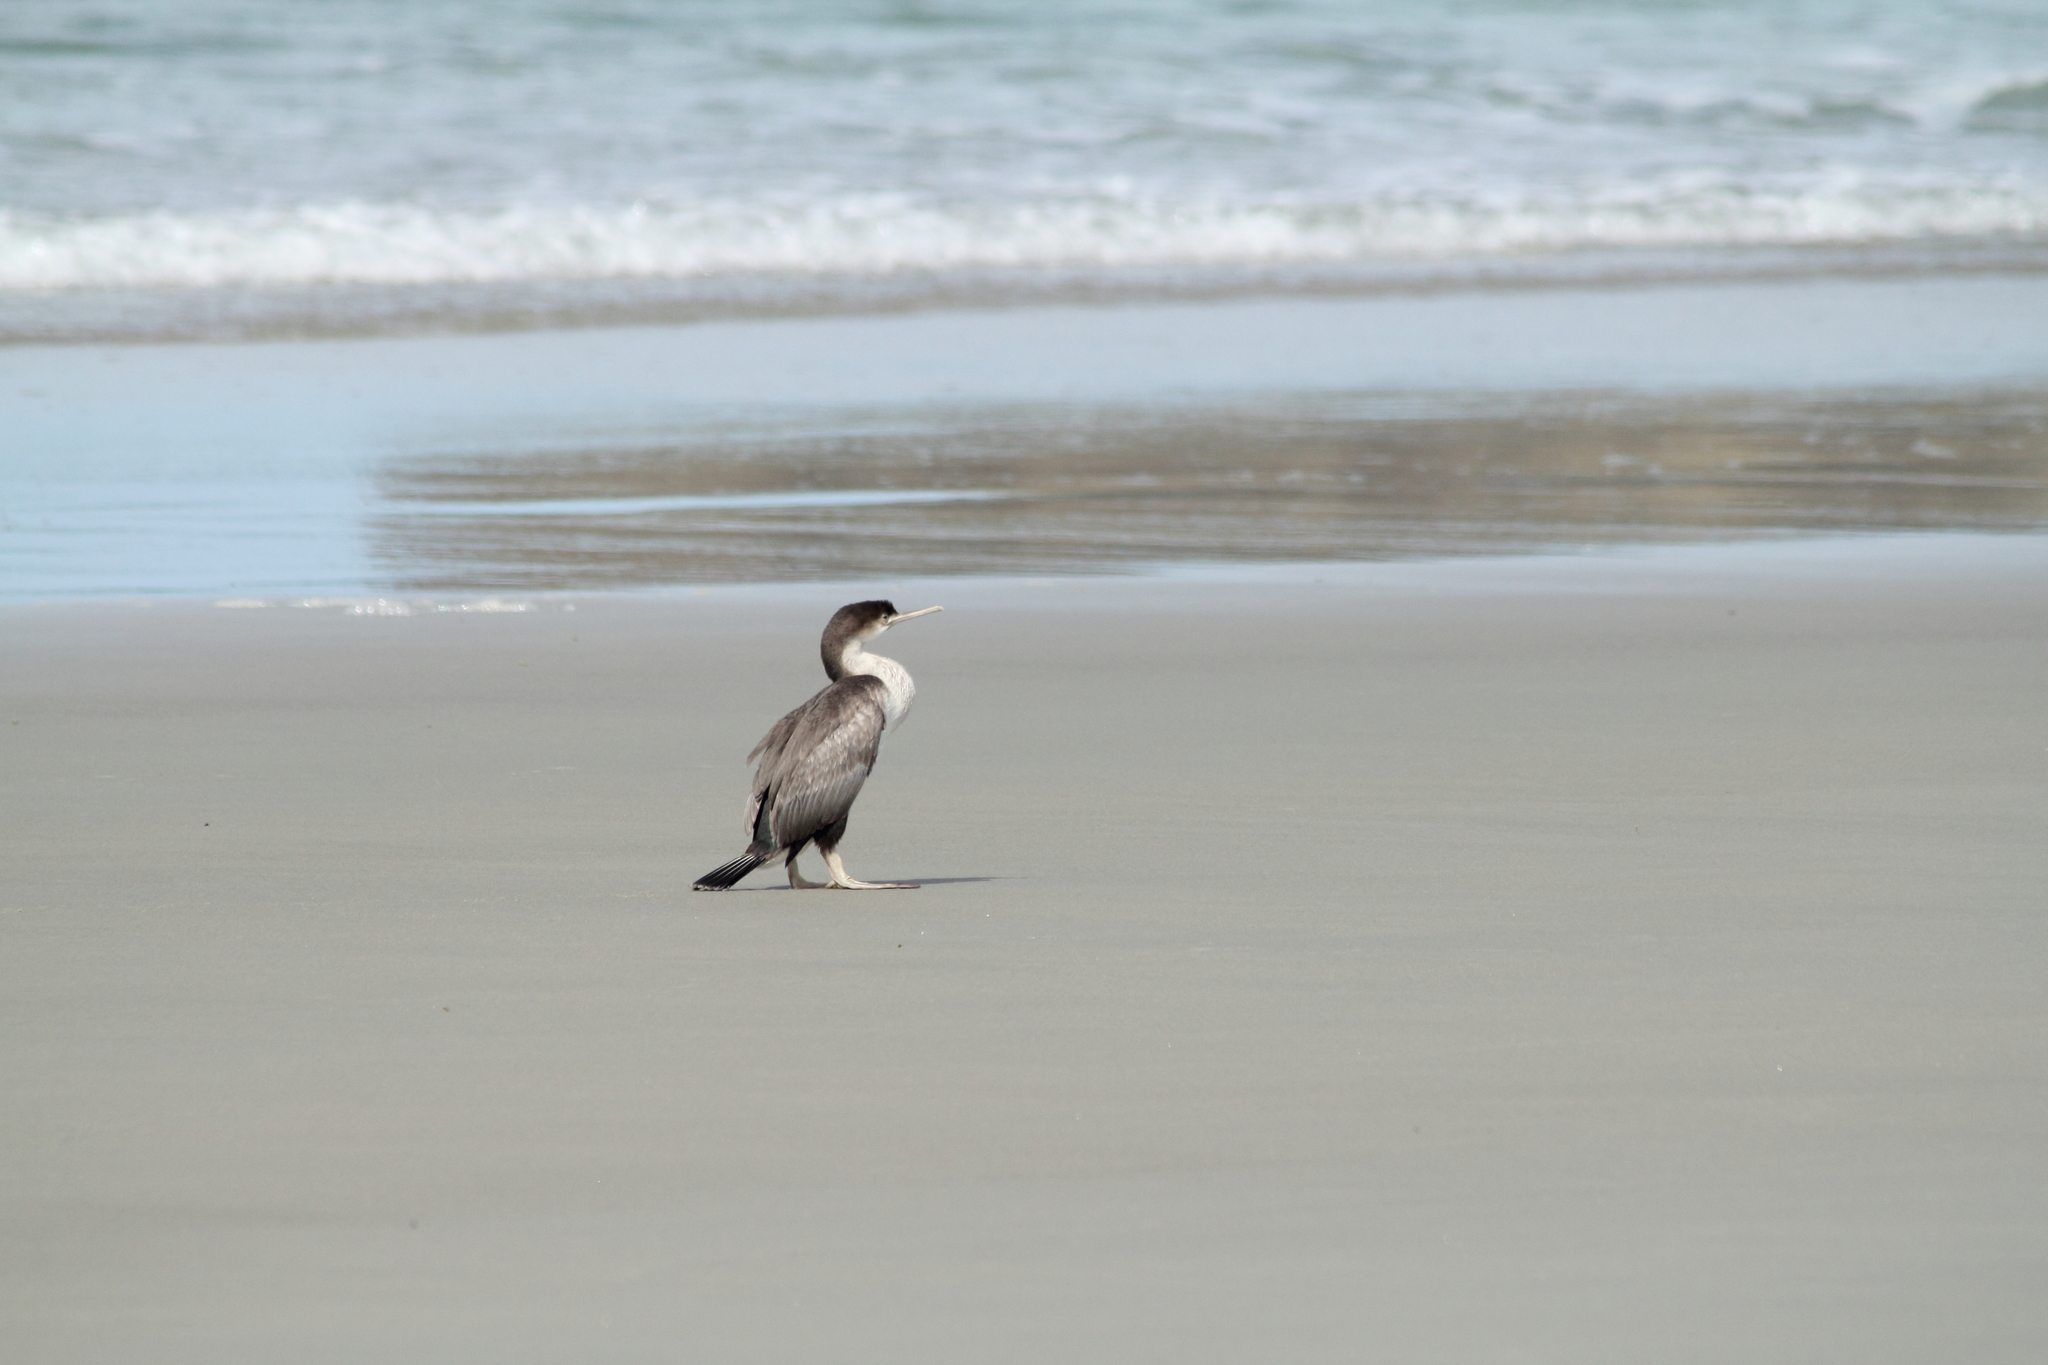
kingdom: Animalia
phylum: Chordata
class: Aves
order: Suliformes
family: Phalacrocoracidae
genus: Phalacrocorax
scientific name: Phalacrocorax punctatus
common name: Spotted shag
